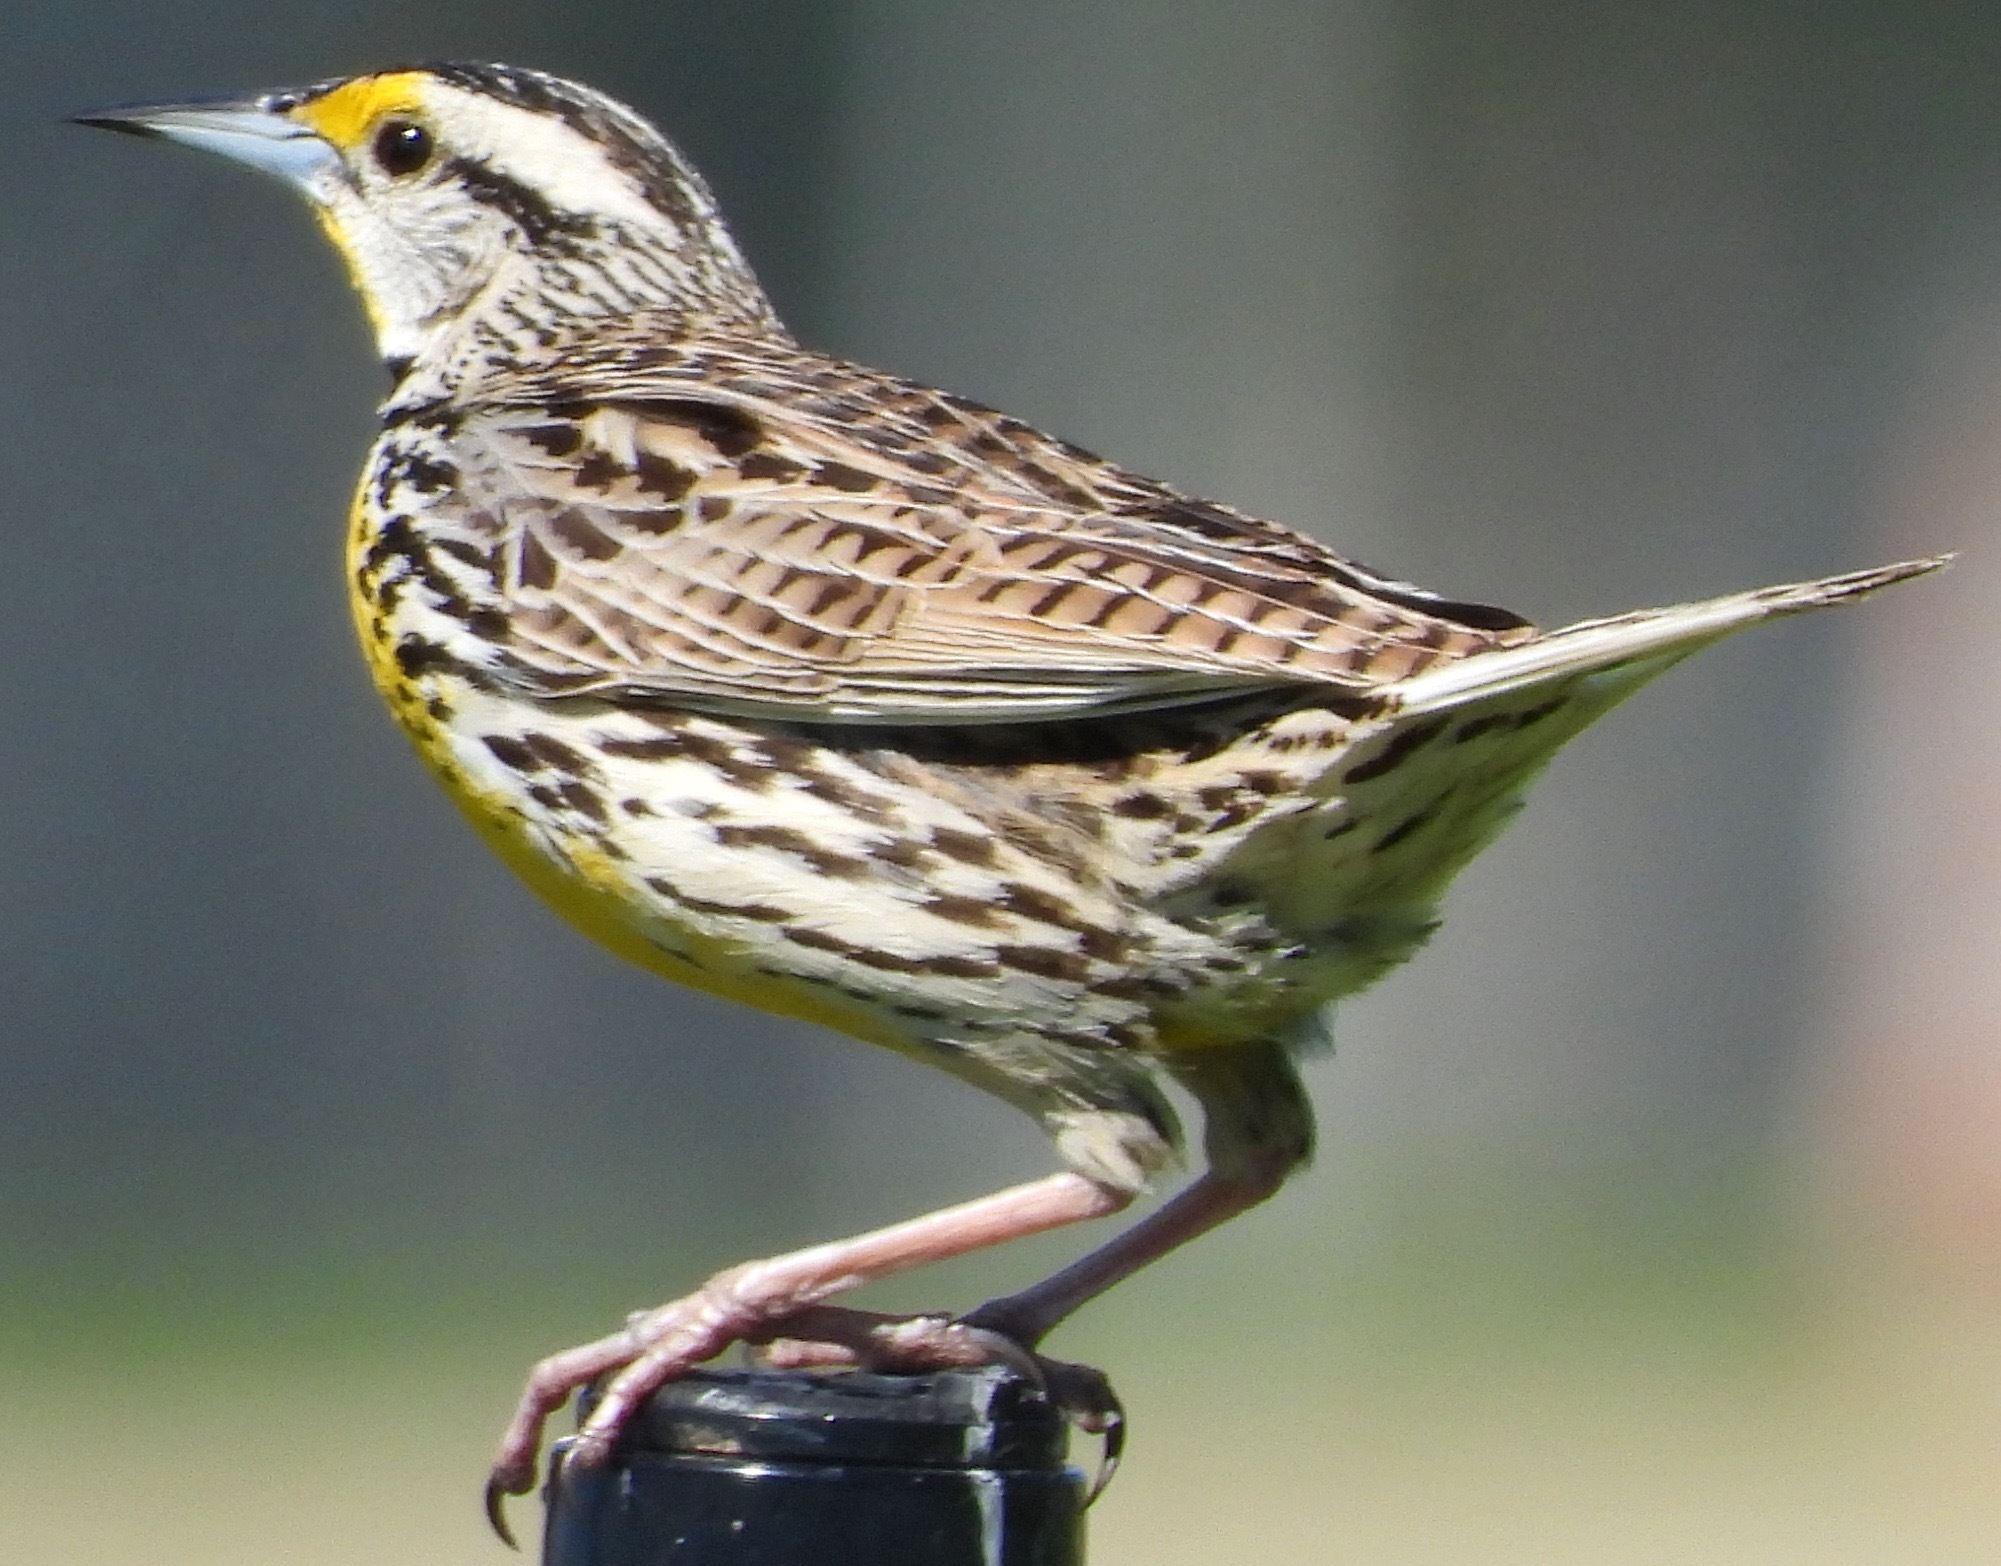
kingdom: Animalia
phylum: Chordata
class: Aves
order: Passeriformes
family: Icteridae
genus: Sturnella
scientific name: Sturnella magna
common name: Eastern meadowlark
